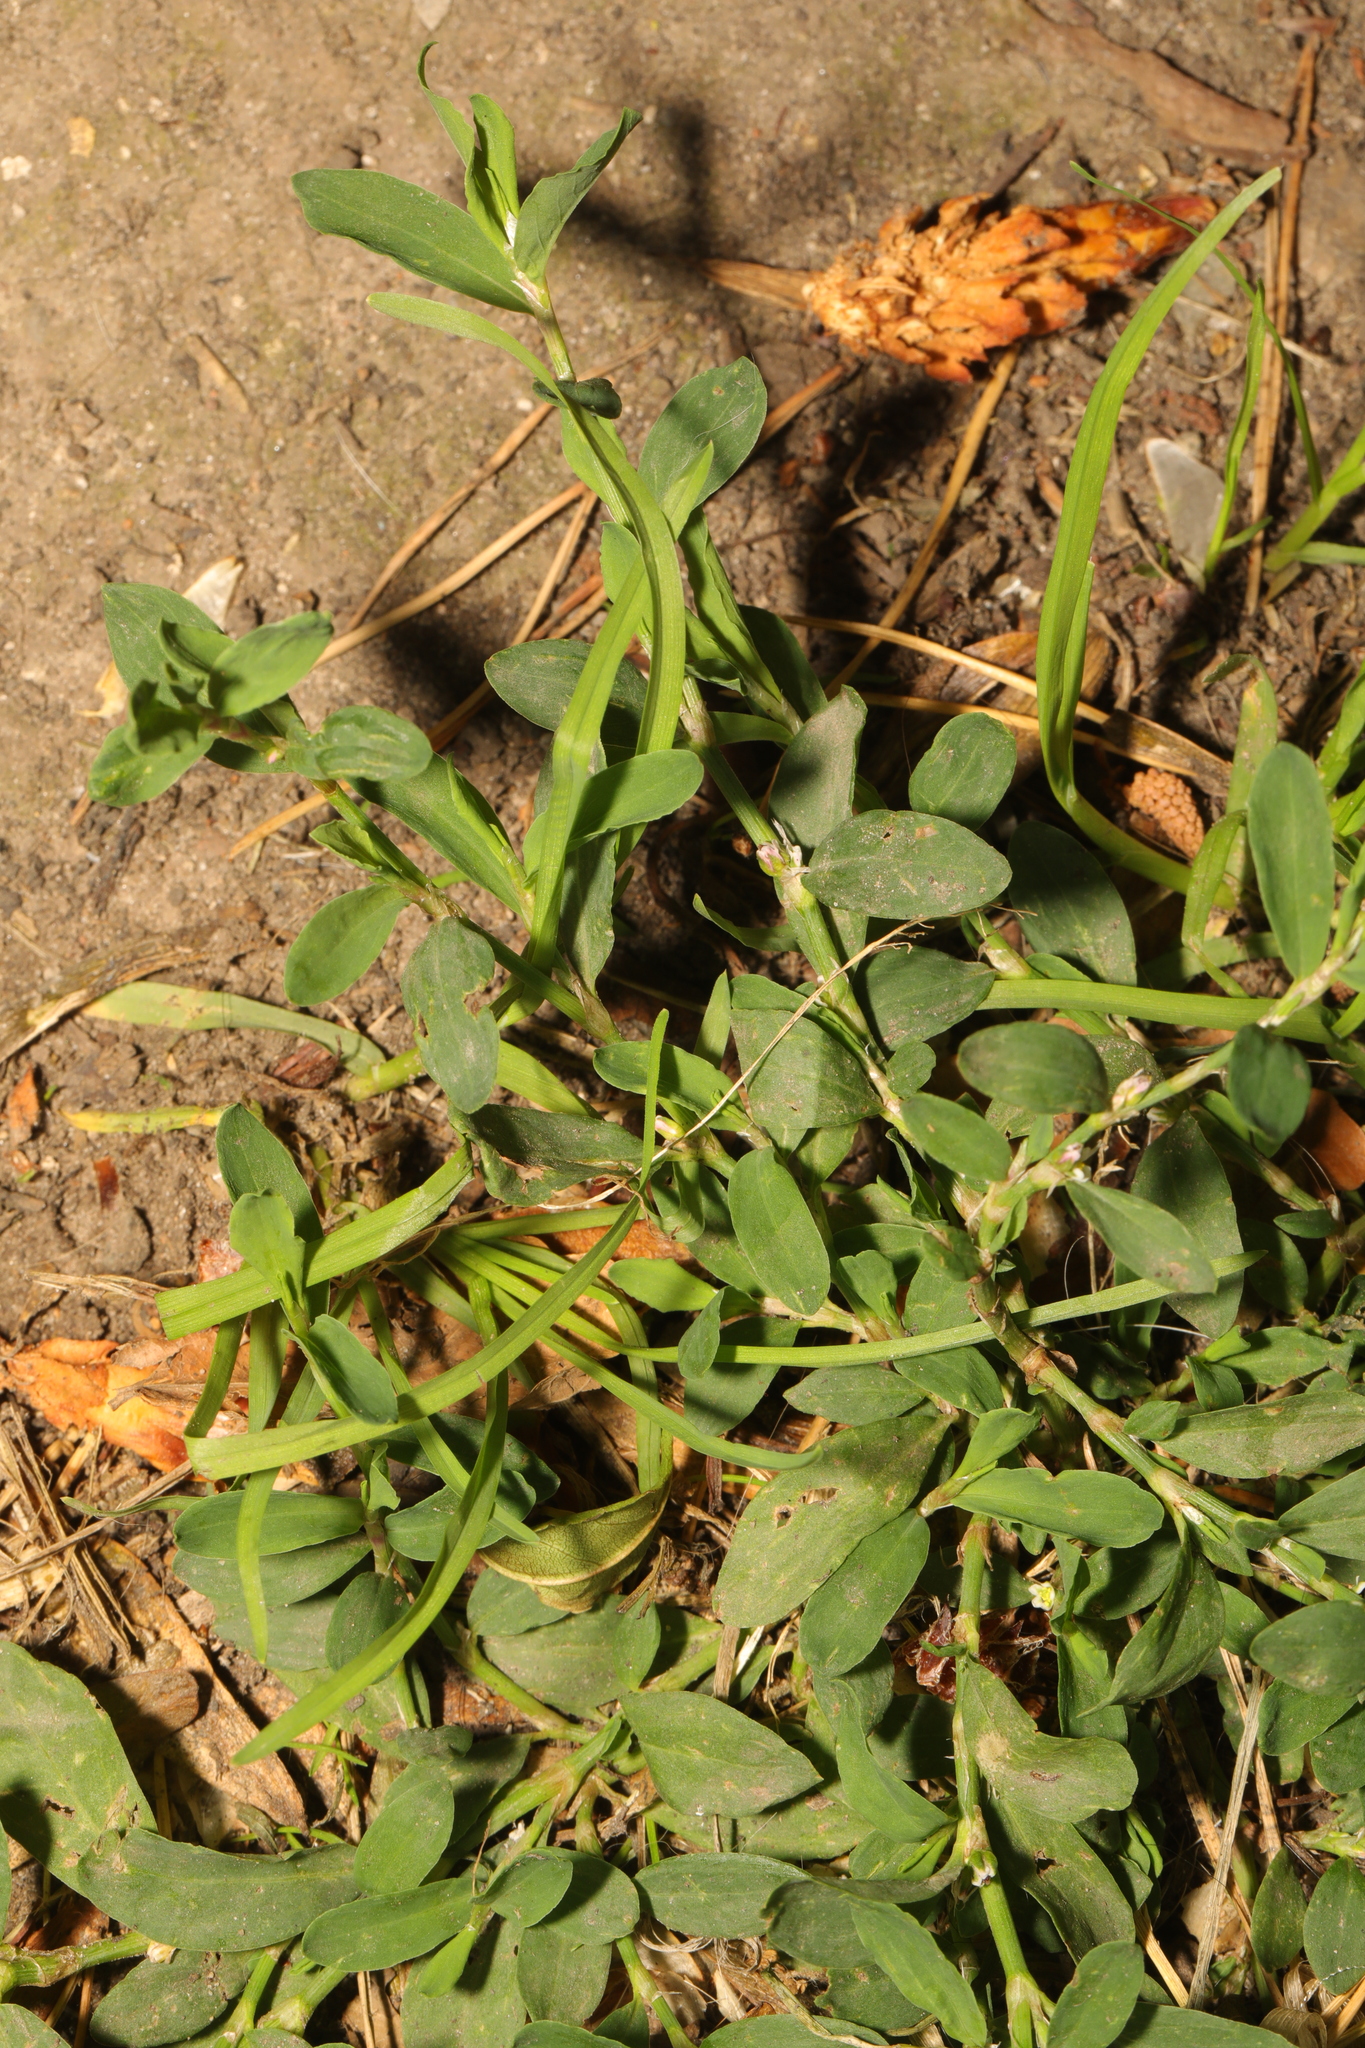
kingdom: Plantae
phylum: Tracheophyta
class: Magnoliopsida
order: Caryophyllales
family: Polygonaceae
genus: Polygonum
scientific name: Polygonum aviculare
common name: Prostrate knotweed
